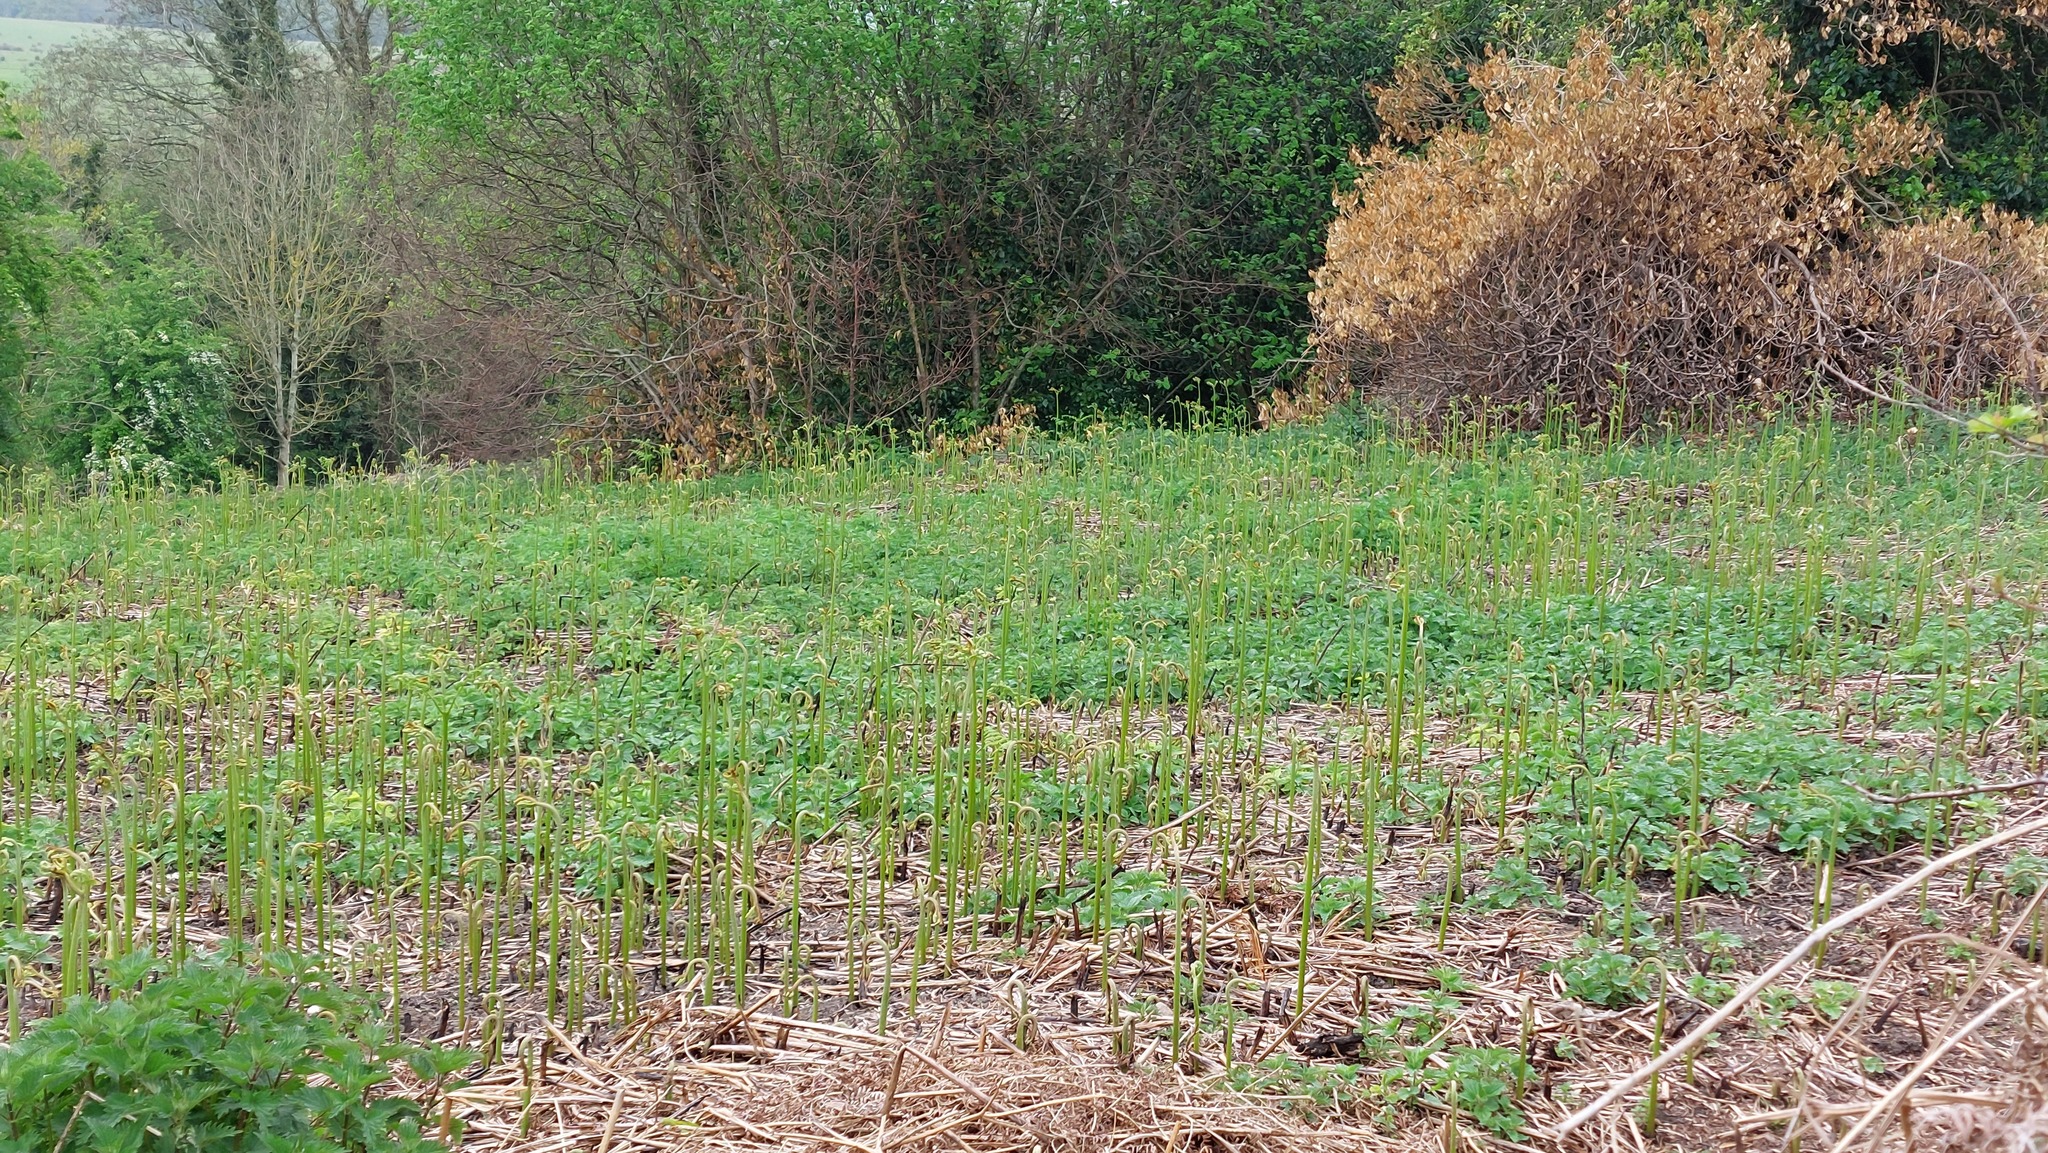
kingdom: Plantae
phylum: Tracheophyta
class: Polypodiopsida
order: Polypodiales
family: Dennstaedtiaceae
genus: Pteridium
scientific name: Pteridium aquilinum
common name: Bracken
